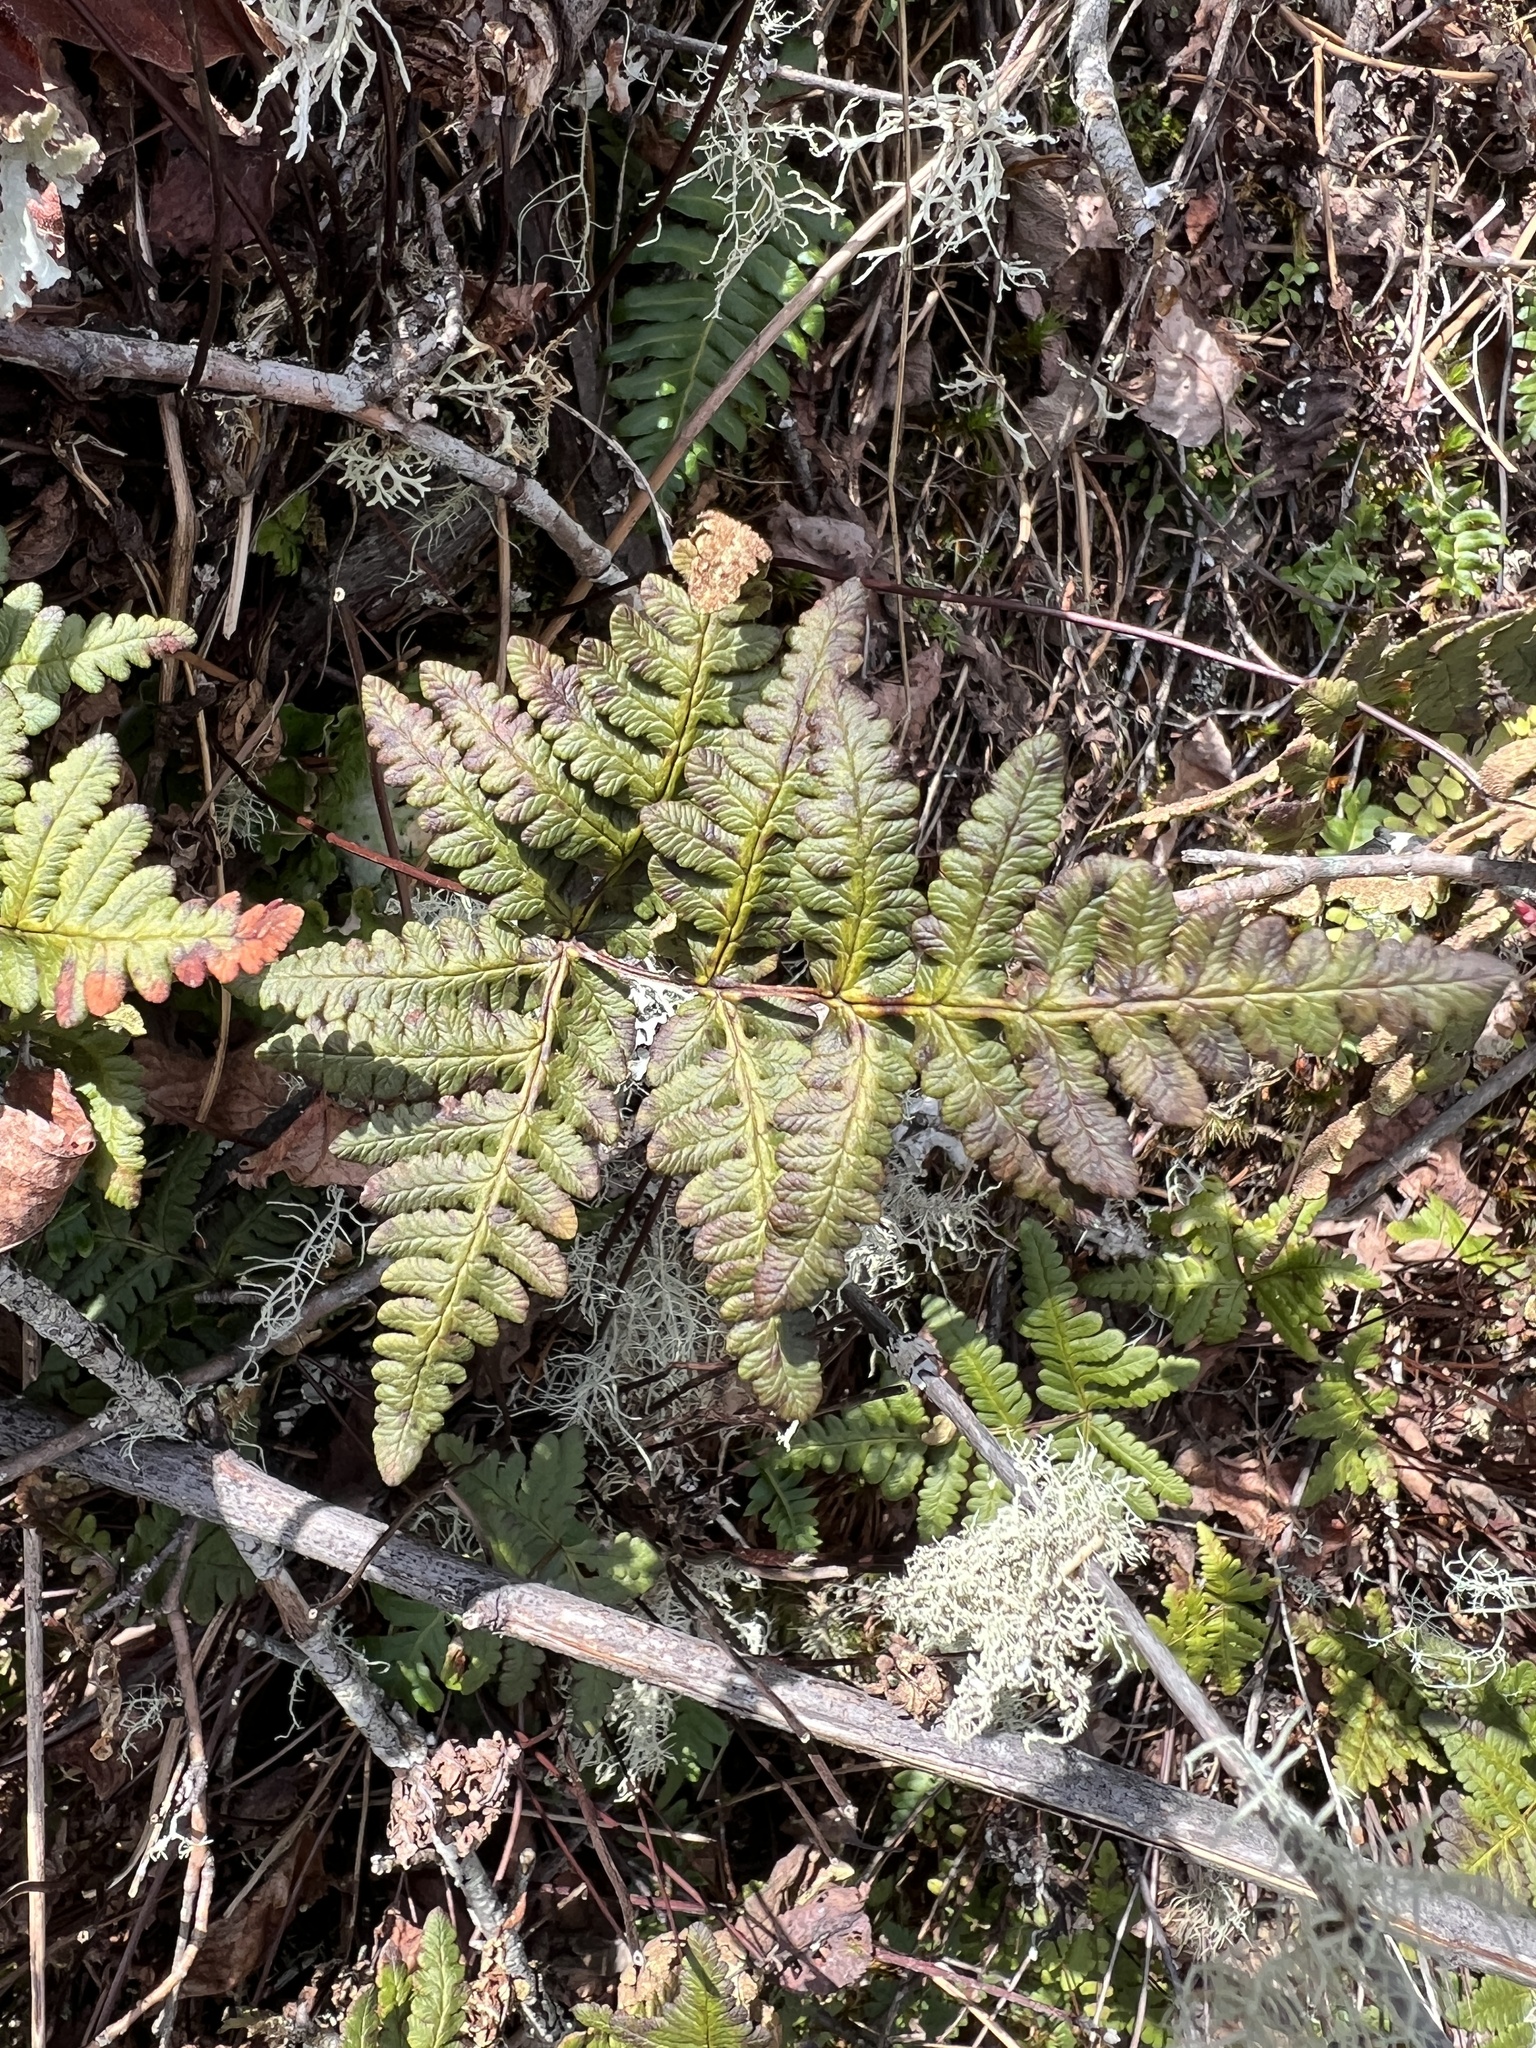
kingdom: Plantae
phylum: Tracheophyta
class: Polypodiopsida
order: Polypodiales
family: Pteridaceae
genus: Pentagramma
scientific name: Pentagramma triangularis
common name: Gold fern
